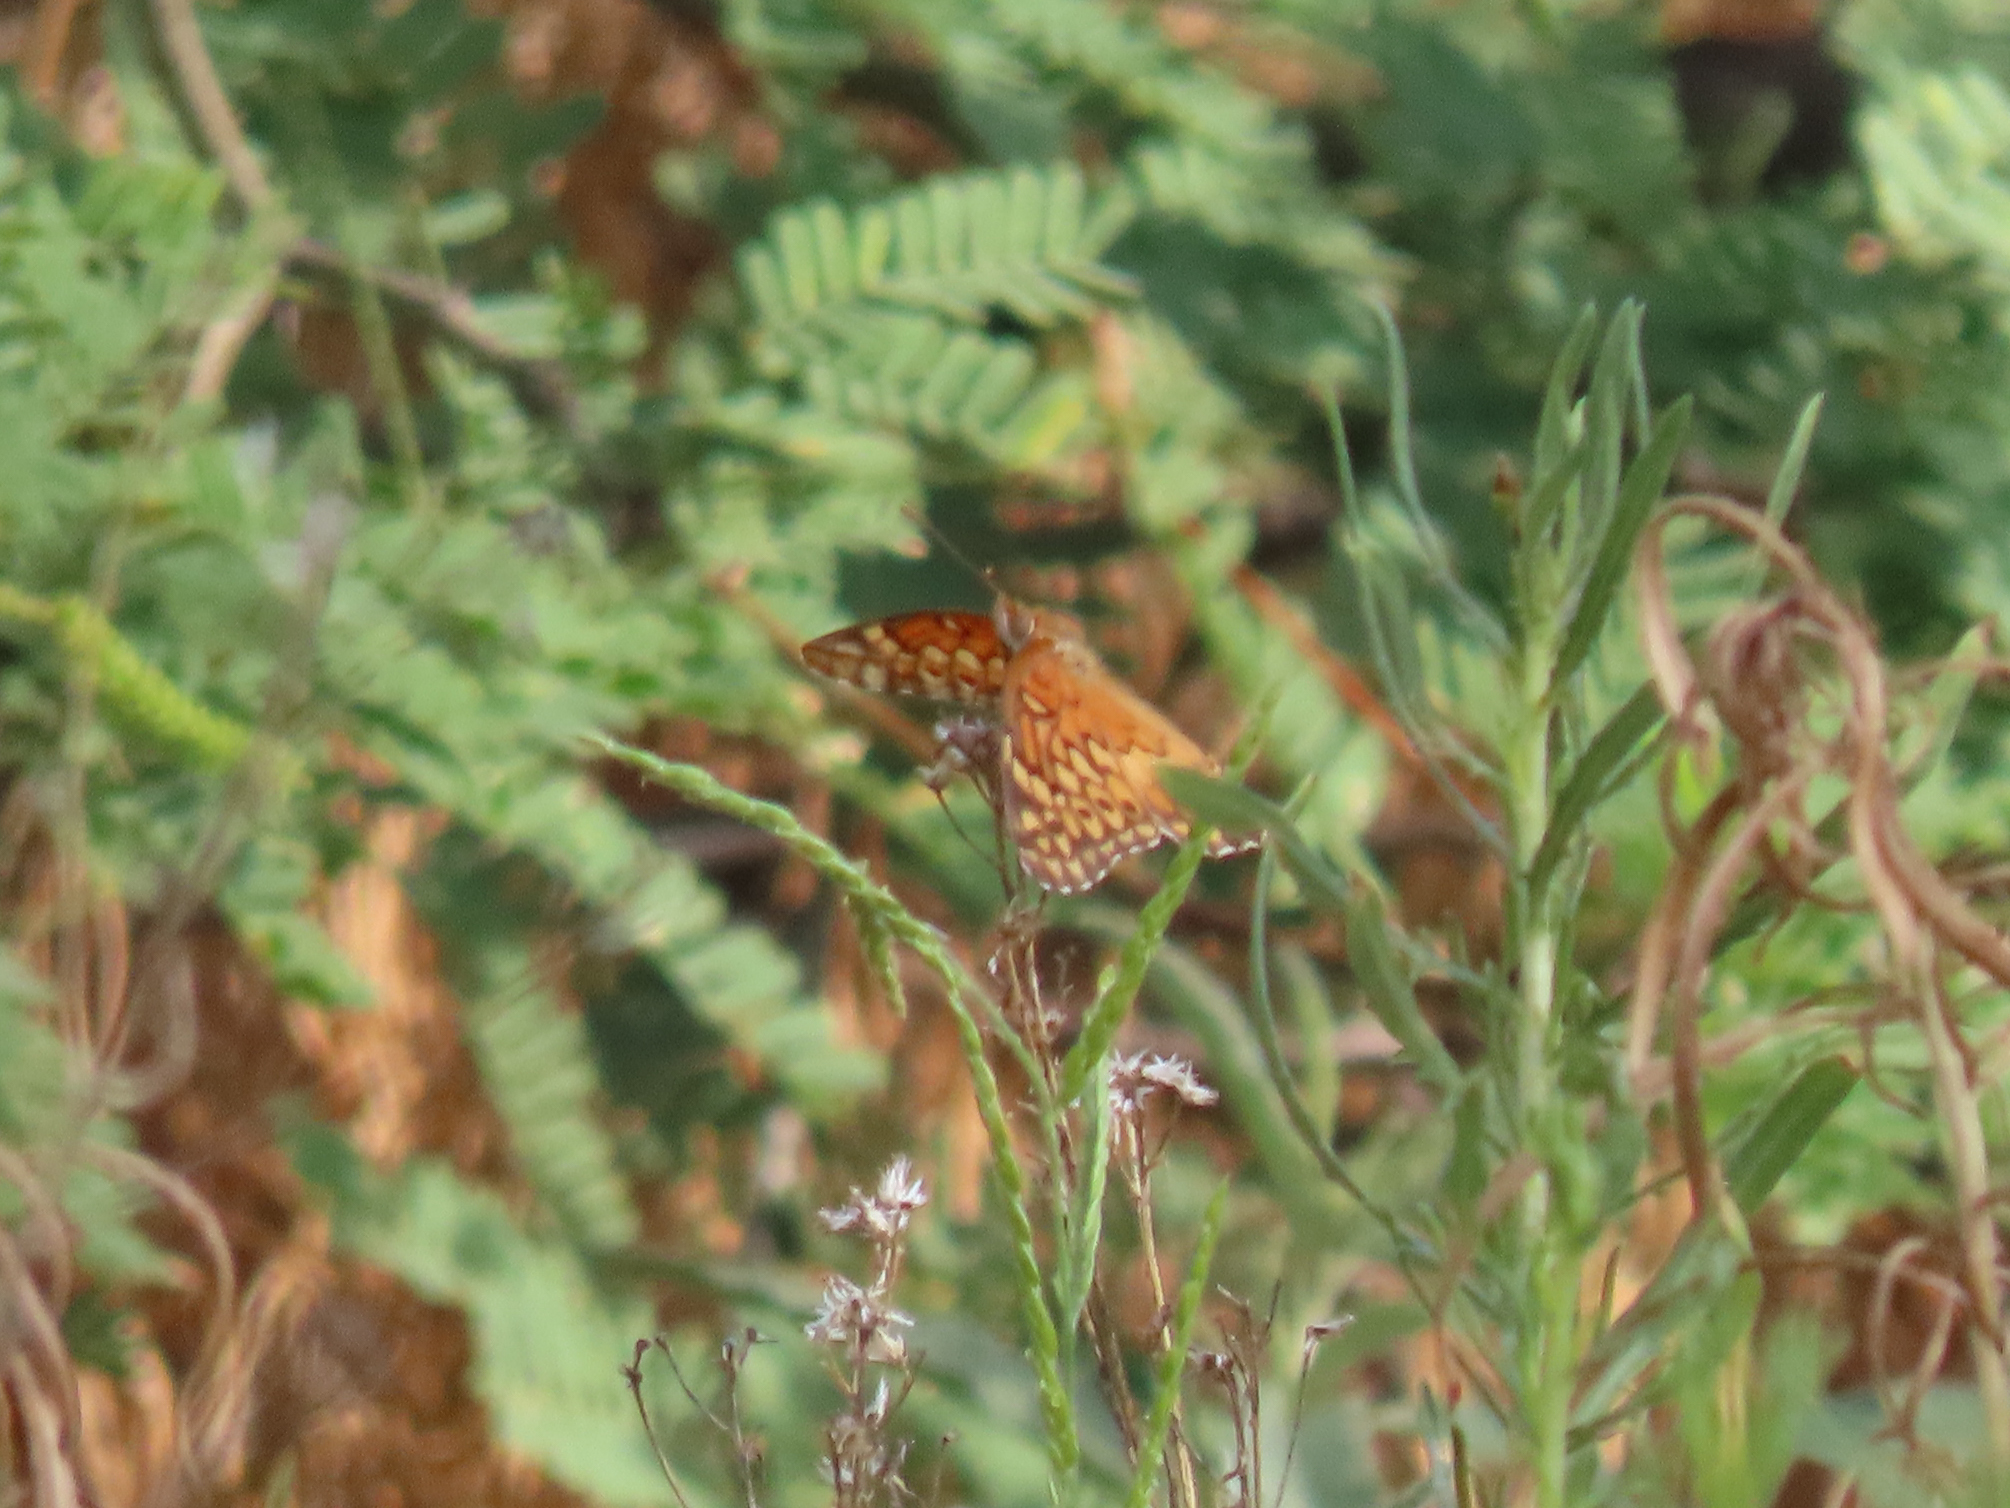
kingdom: Animalia
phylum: Arthropoda
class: Insecta
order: Lepidoptera
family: Nymphalidae
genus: Euptoieta
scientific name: Euptoieta claudia
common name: Variegated fritillary
